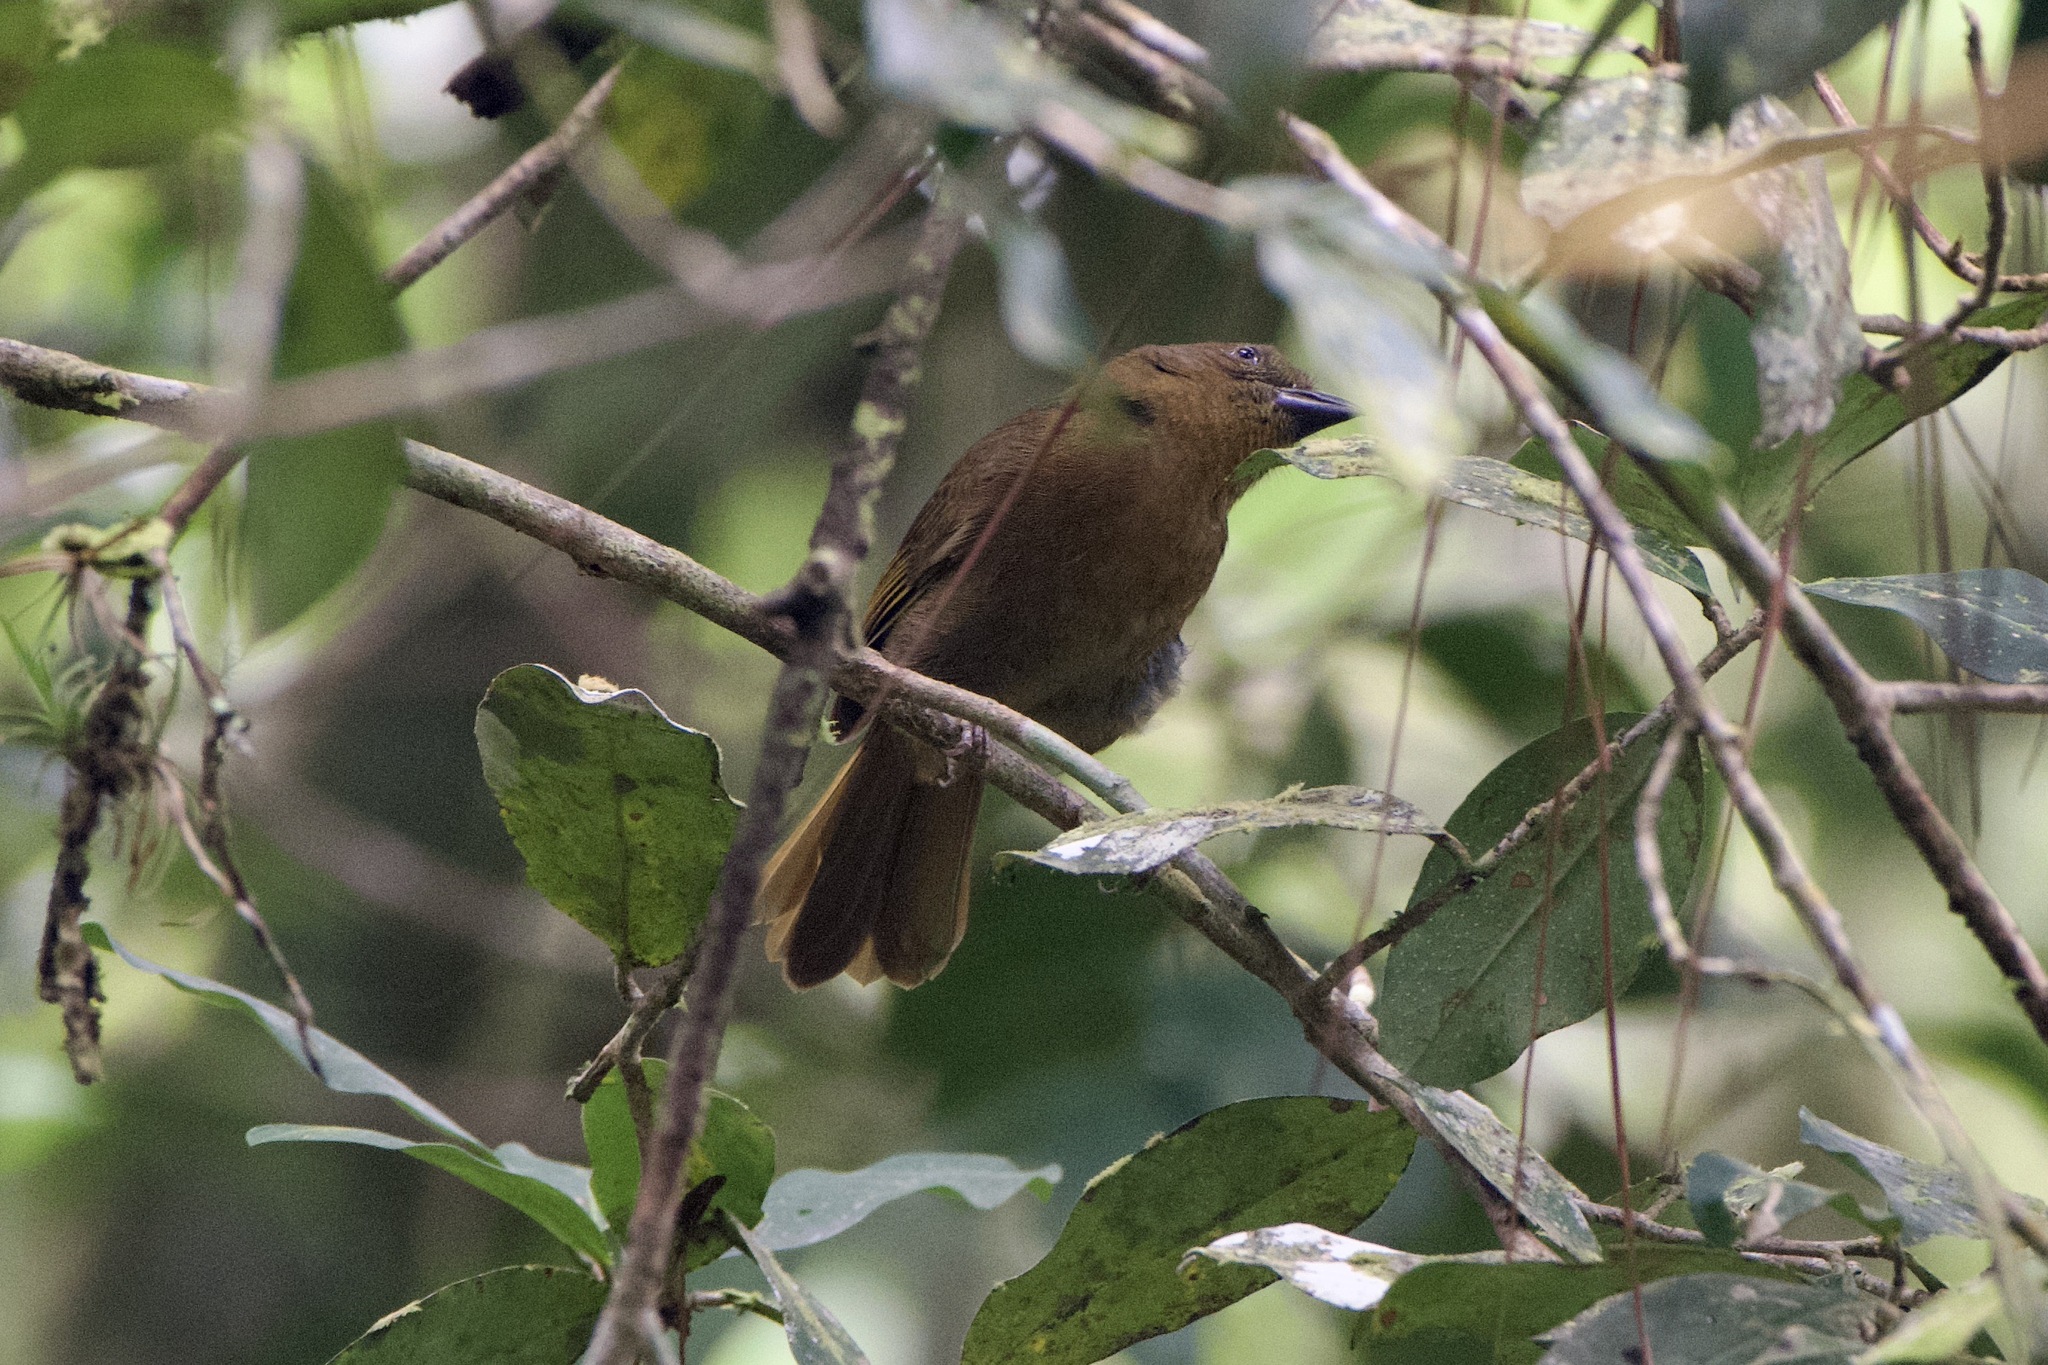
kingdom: Animalia
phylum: Chordata
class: Aves
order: Passeriformes
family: Cardinalidae
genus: Habia
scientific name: Habia rubica
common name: Red-crowned ant-tanager
